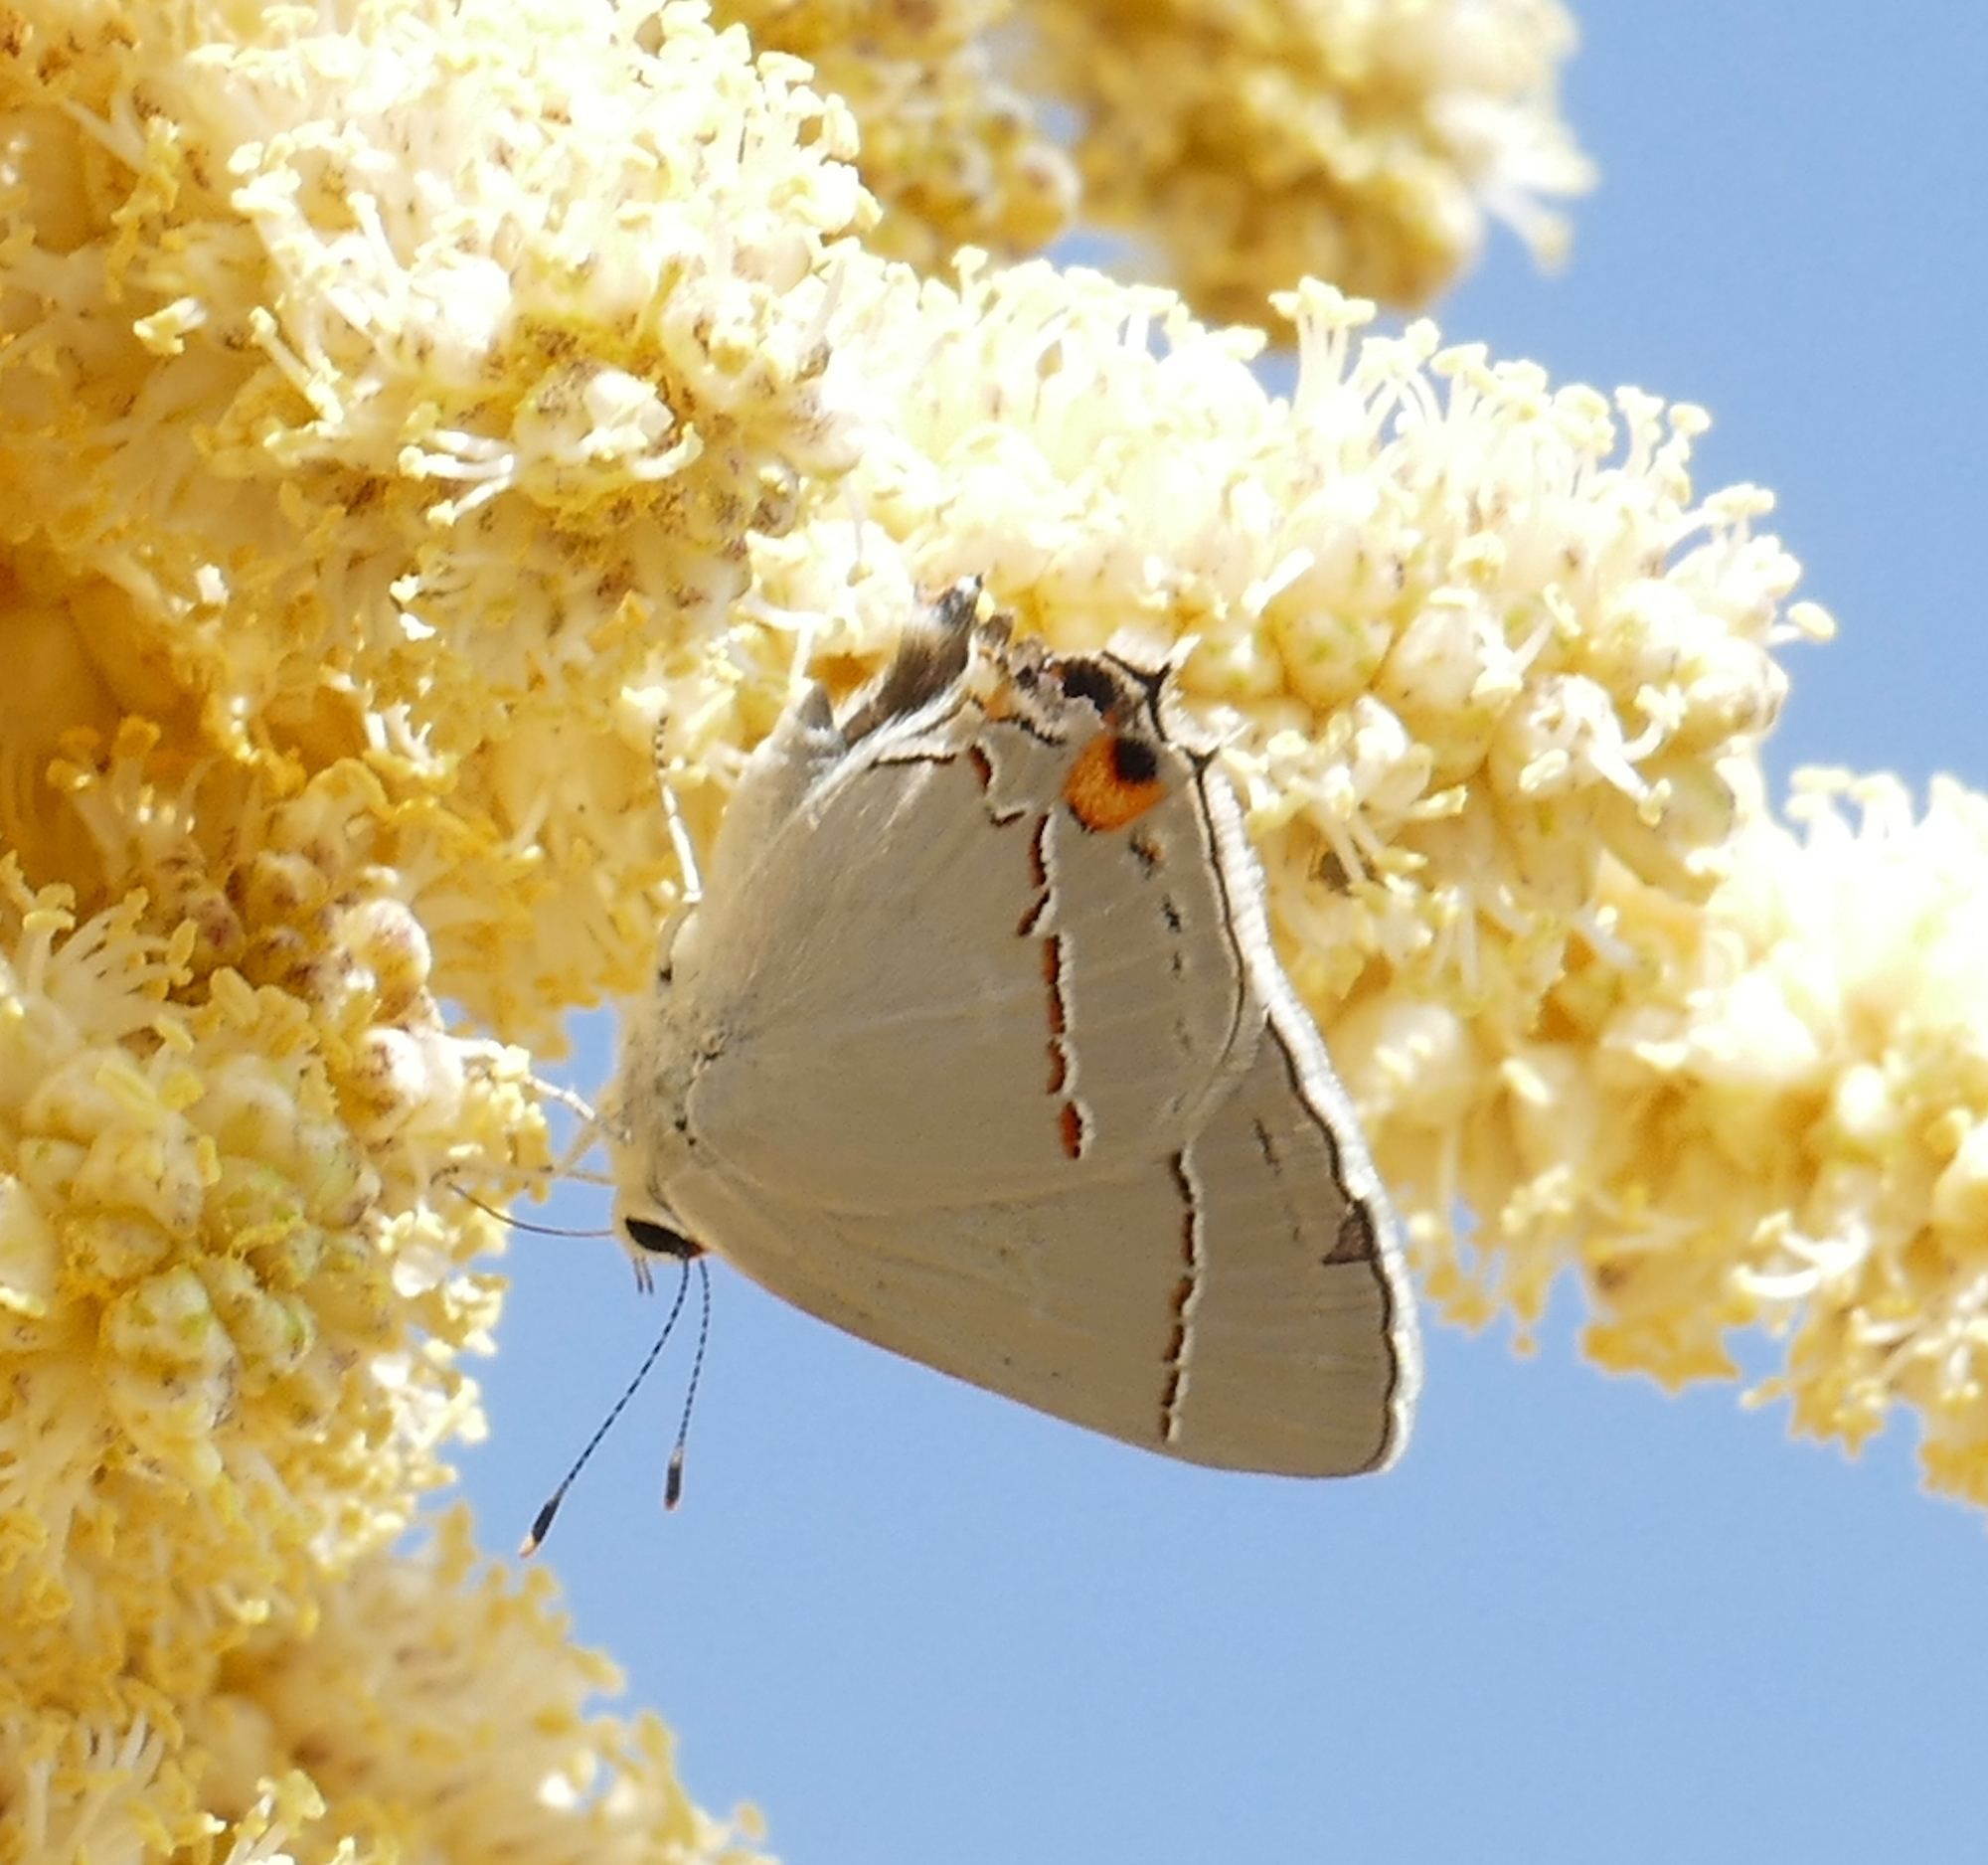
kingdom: Animalia
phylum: Arthropoda
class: Insecta
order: Lepidoptera
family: Lycaenidae
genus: Strymon
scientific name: Strymon melinus
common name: Gray hairstreak
